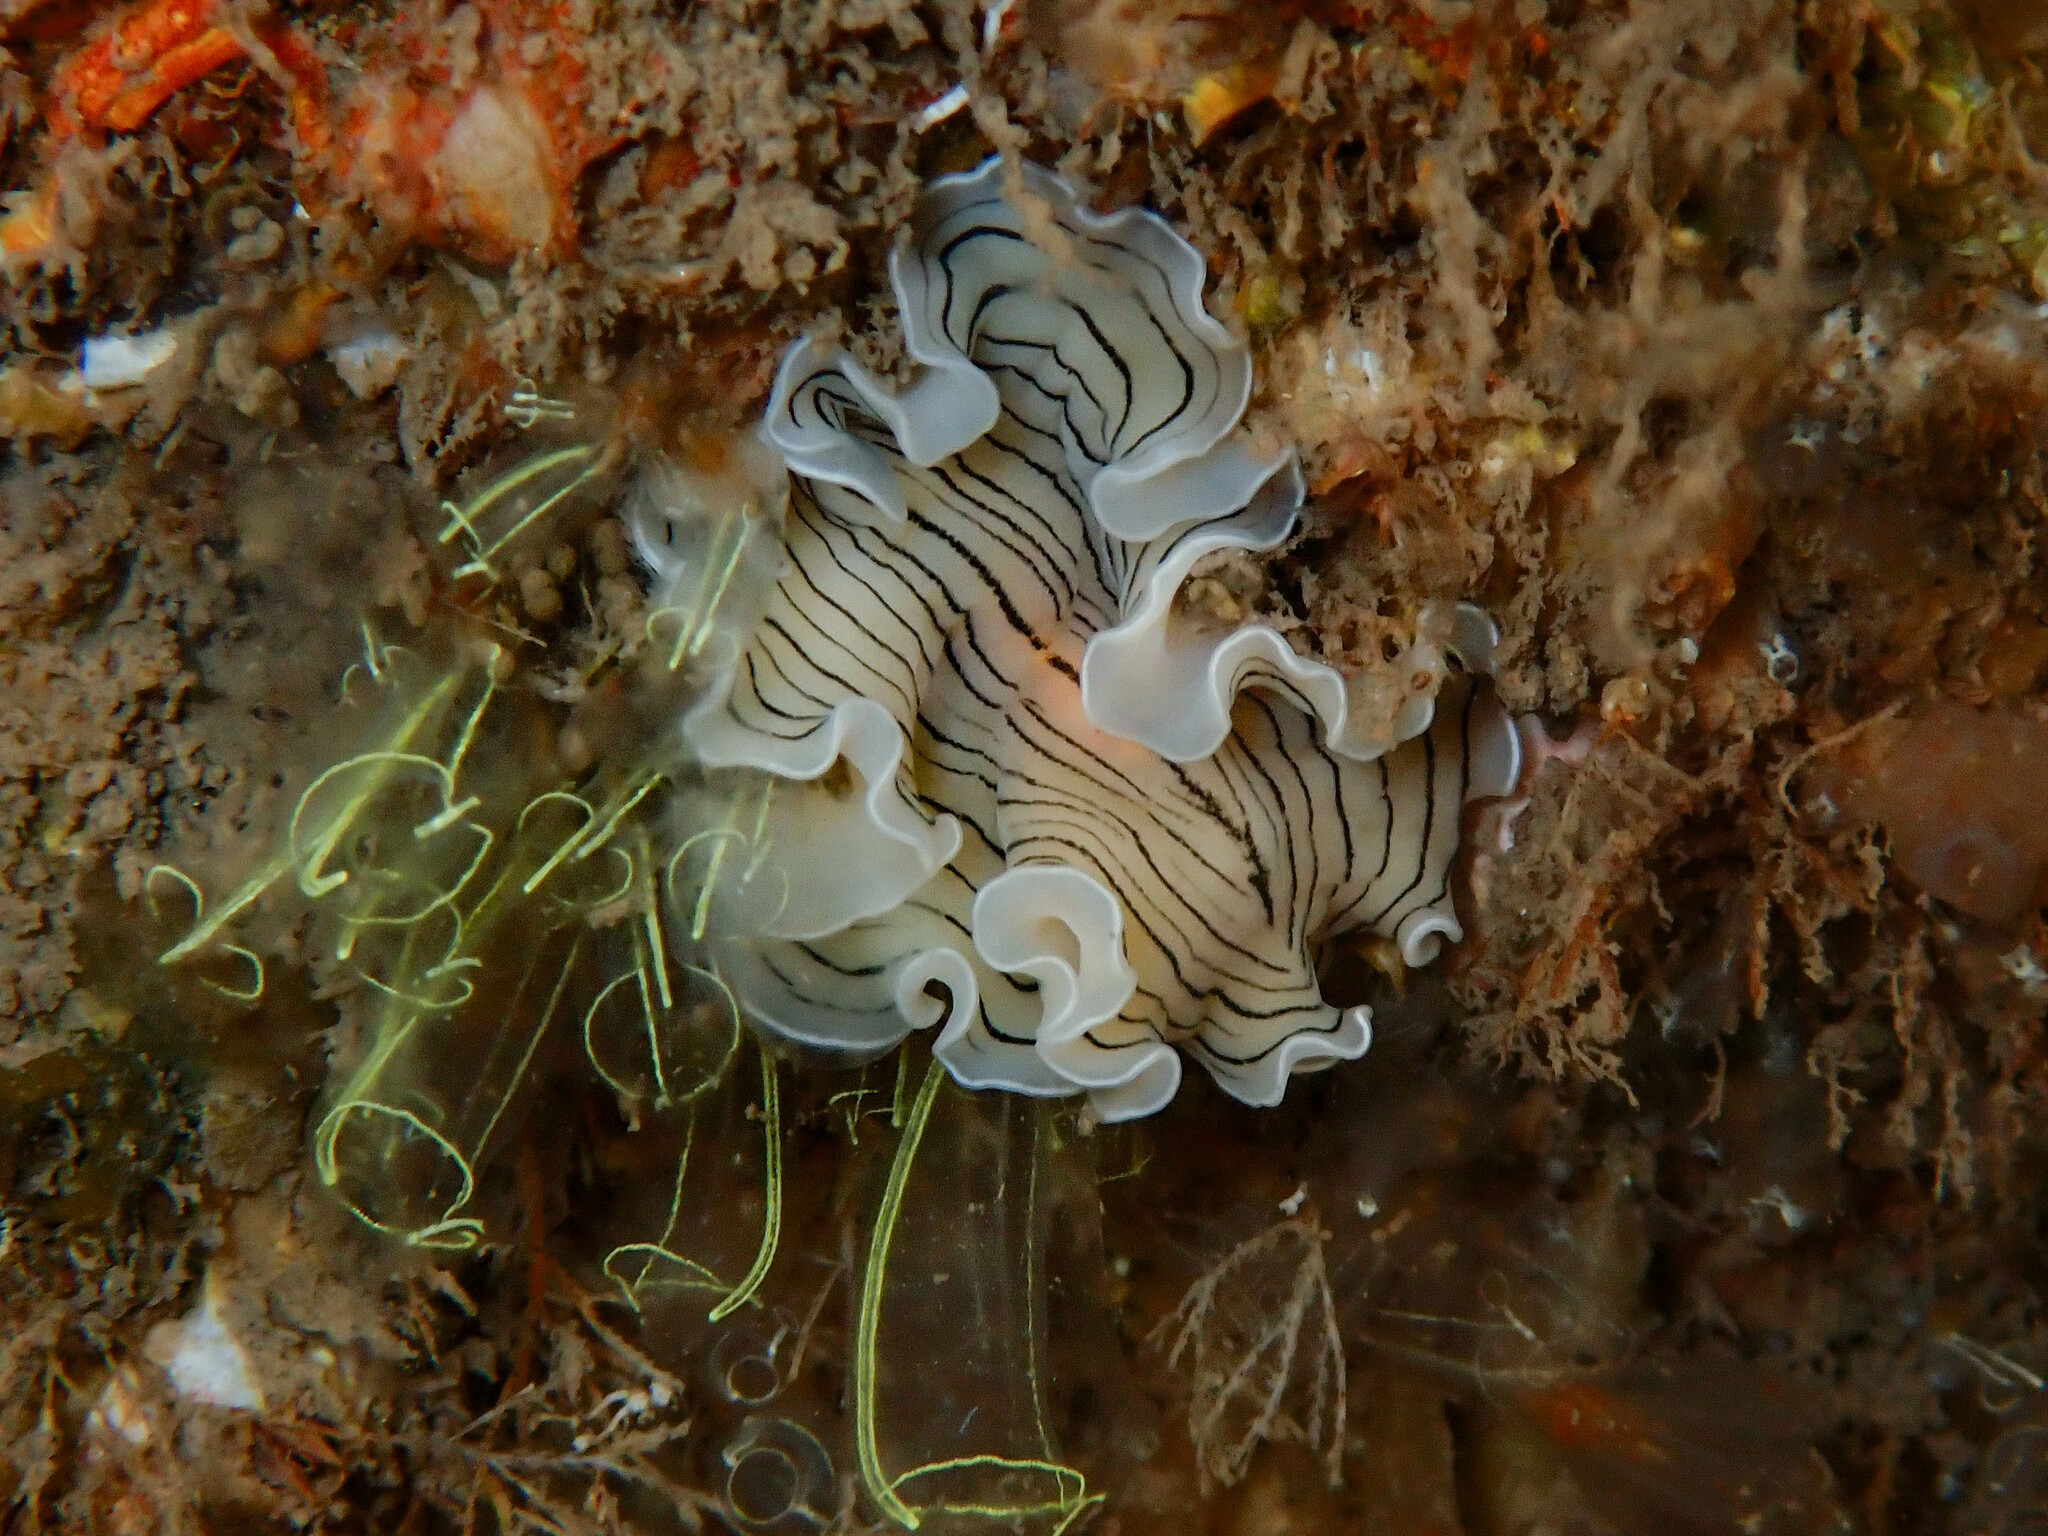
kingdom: Animalia
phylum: Platyhelminthes
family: Euryleptidae
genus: Prostheceraeus
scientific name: Prostheceraeus vittatus
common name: Candy striped flatworm
